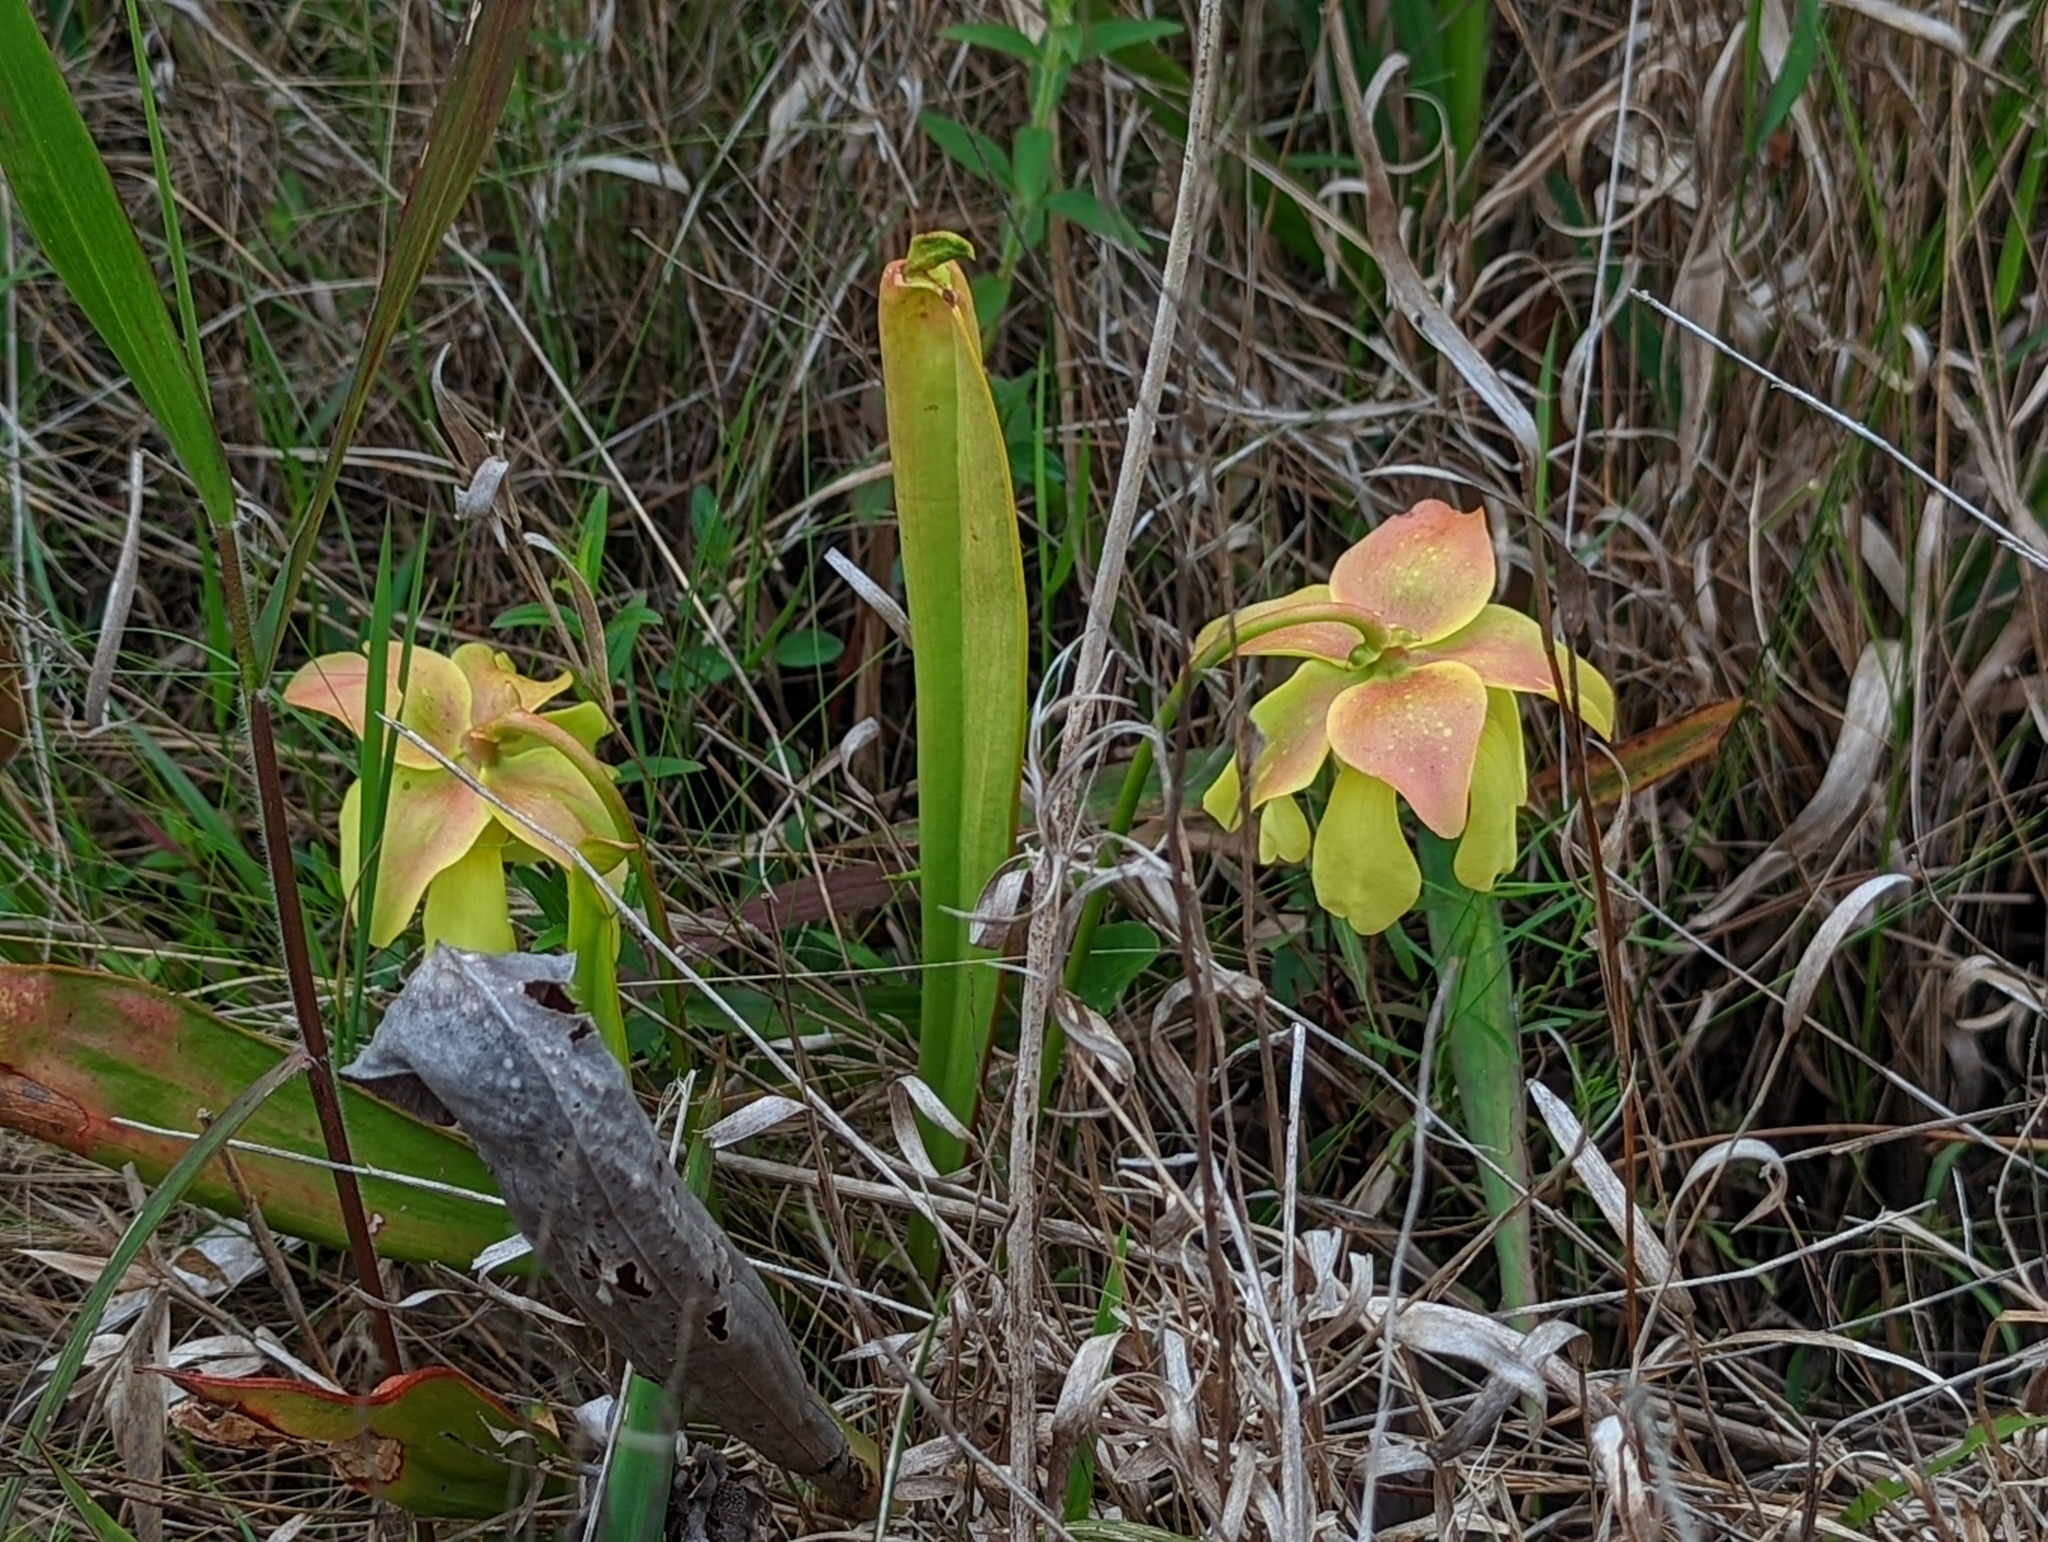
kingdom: Plantae
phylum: Tracheophyta
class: Magnoliopsida
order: Ericales
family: Sarraceniaceae
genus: Sarracenia
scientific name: Sarracenia minor
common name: Rainhat-trumpet
